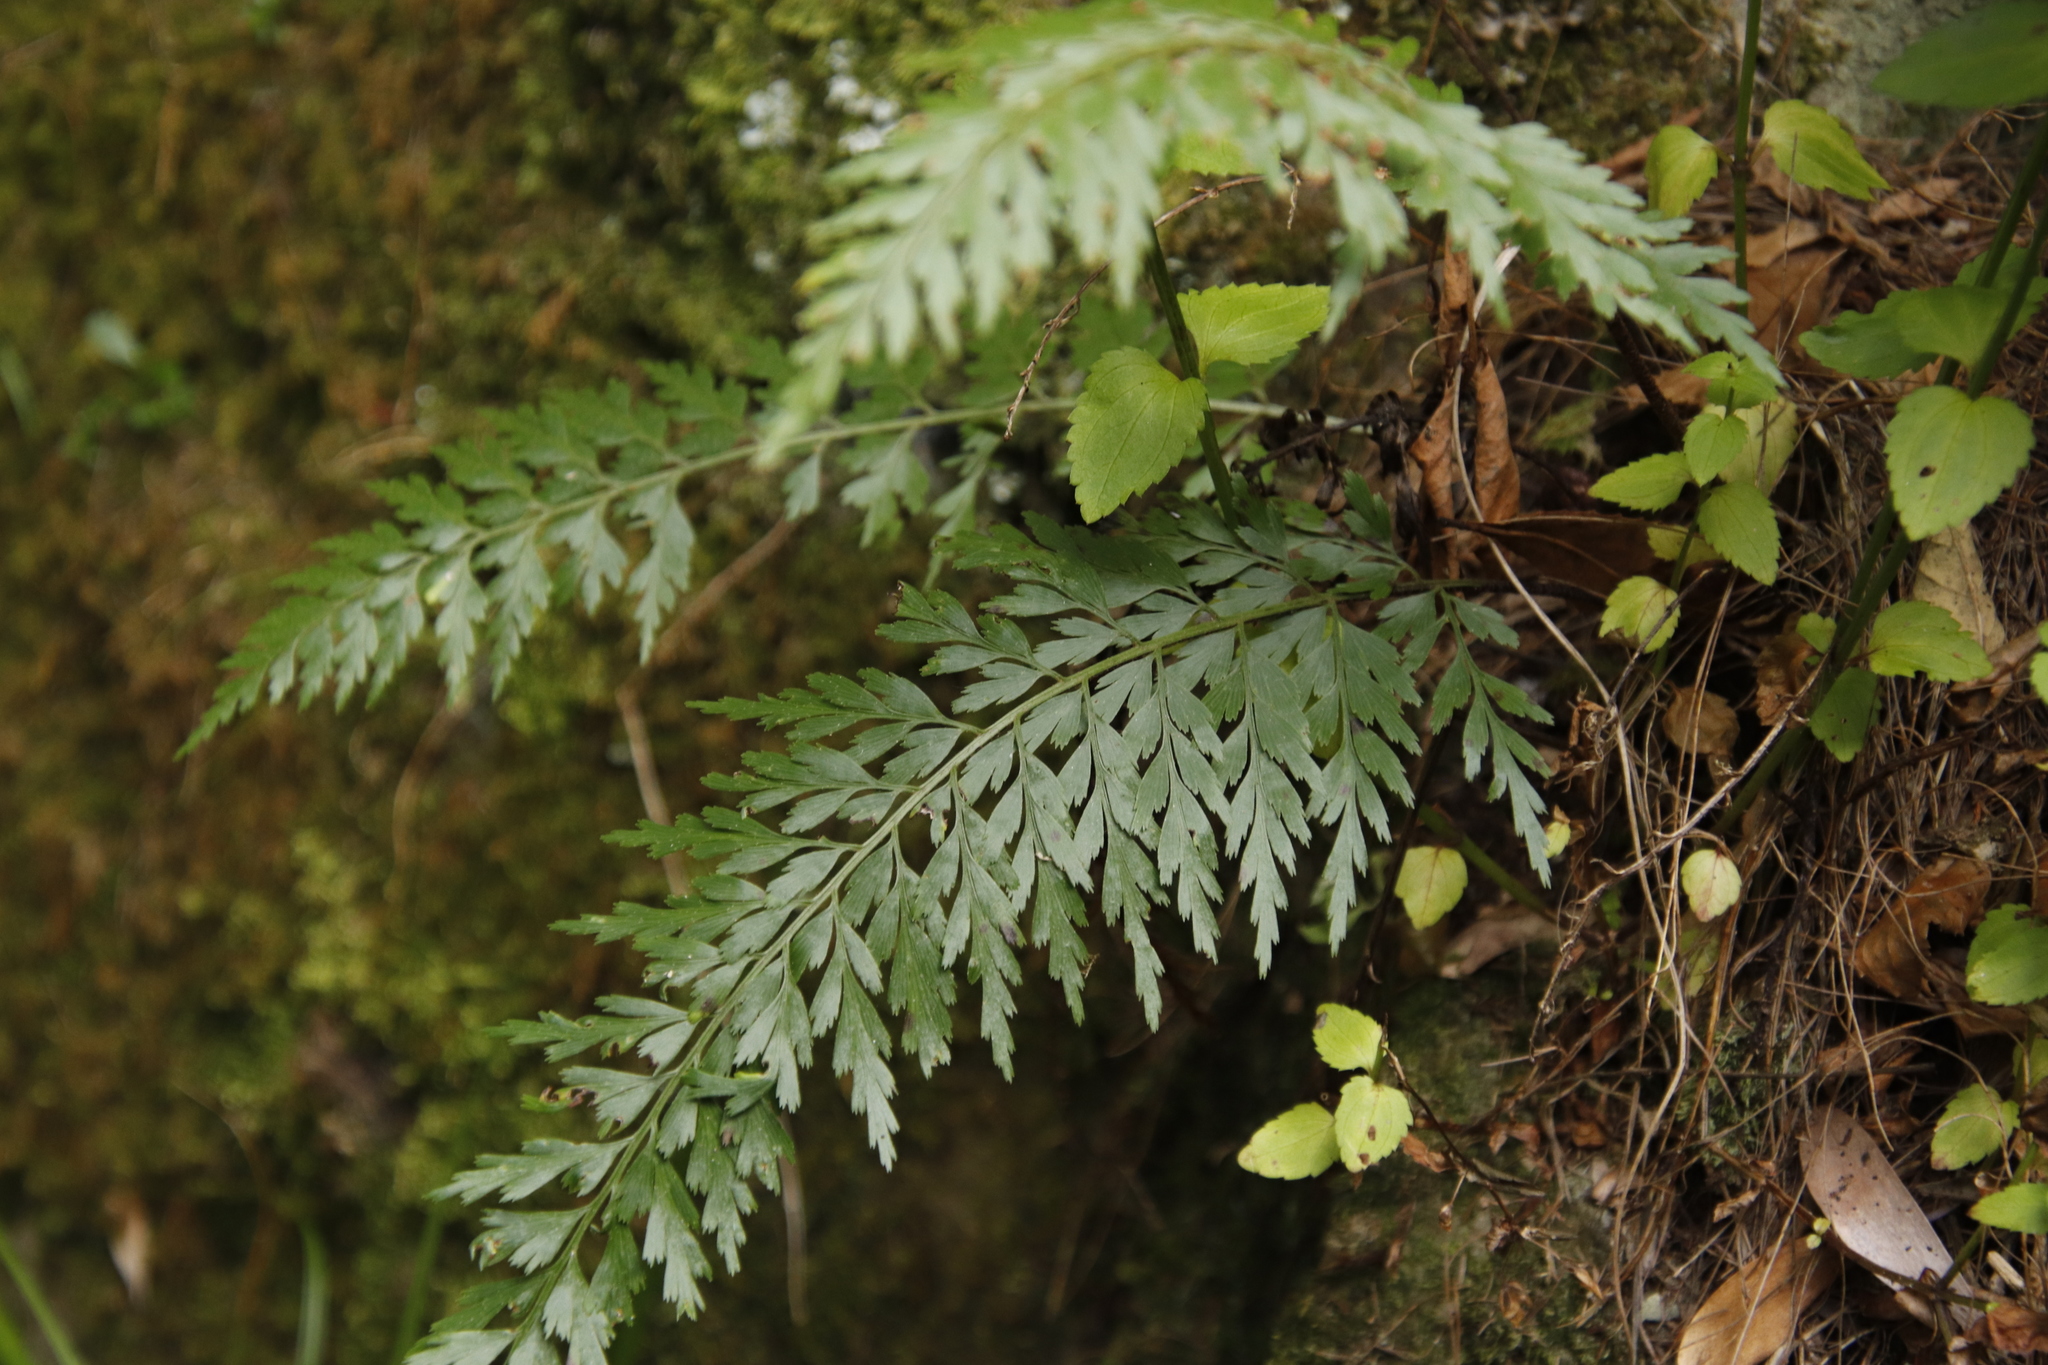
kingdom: Plantae
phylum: Tracheophyta
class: Polypodiopsida
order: Polypodiales
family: Aspleniaceae
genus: Asplenium
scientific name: Asplenium aethiopicum
